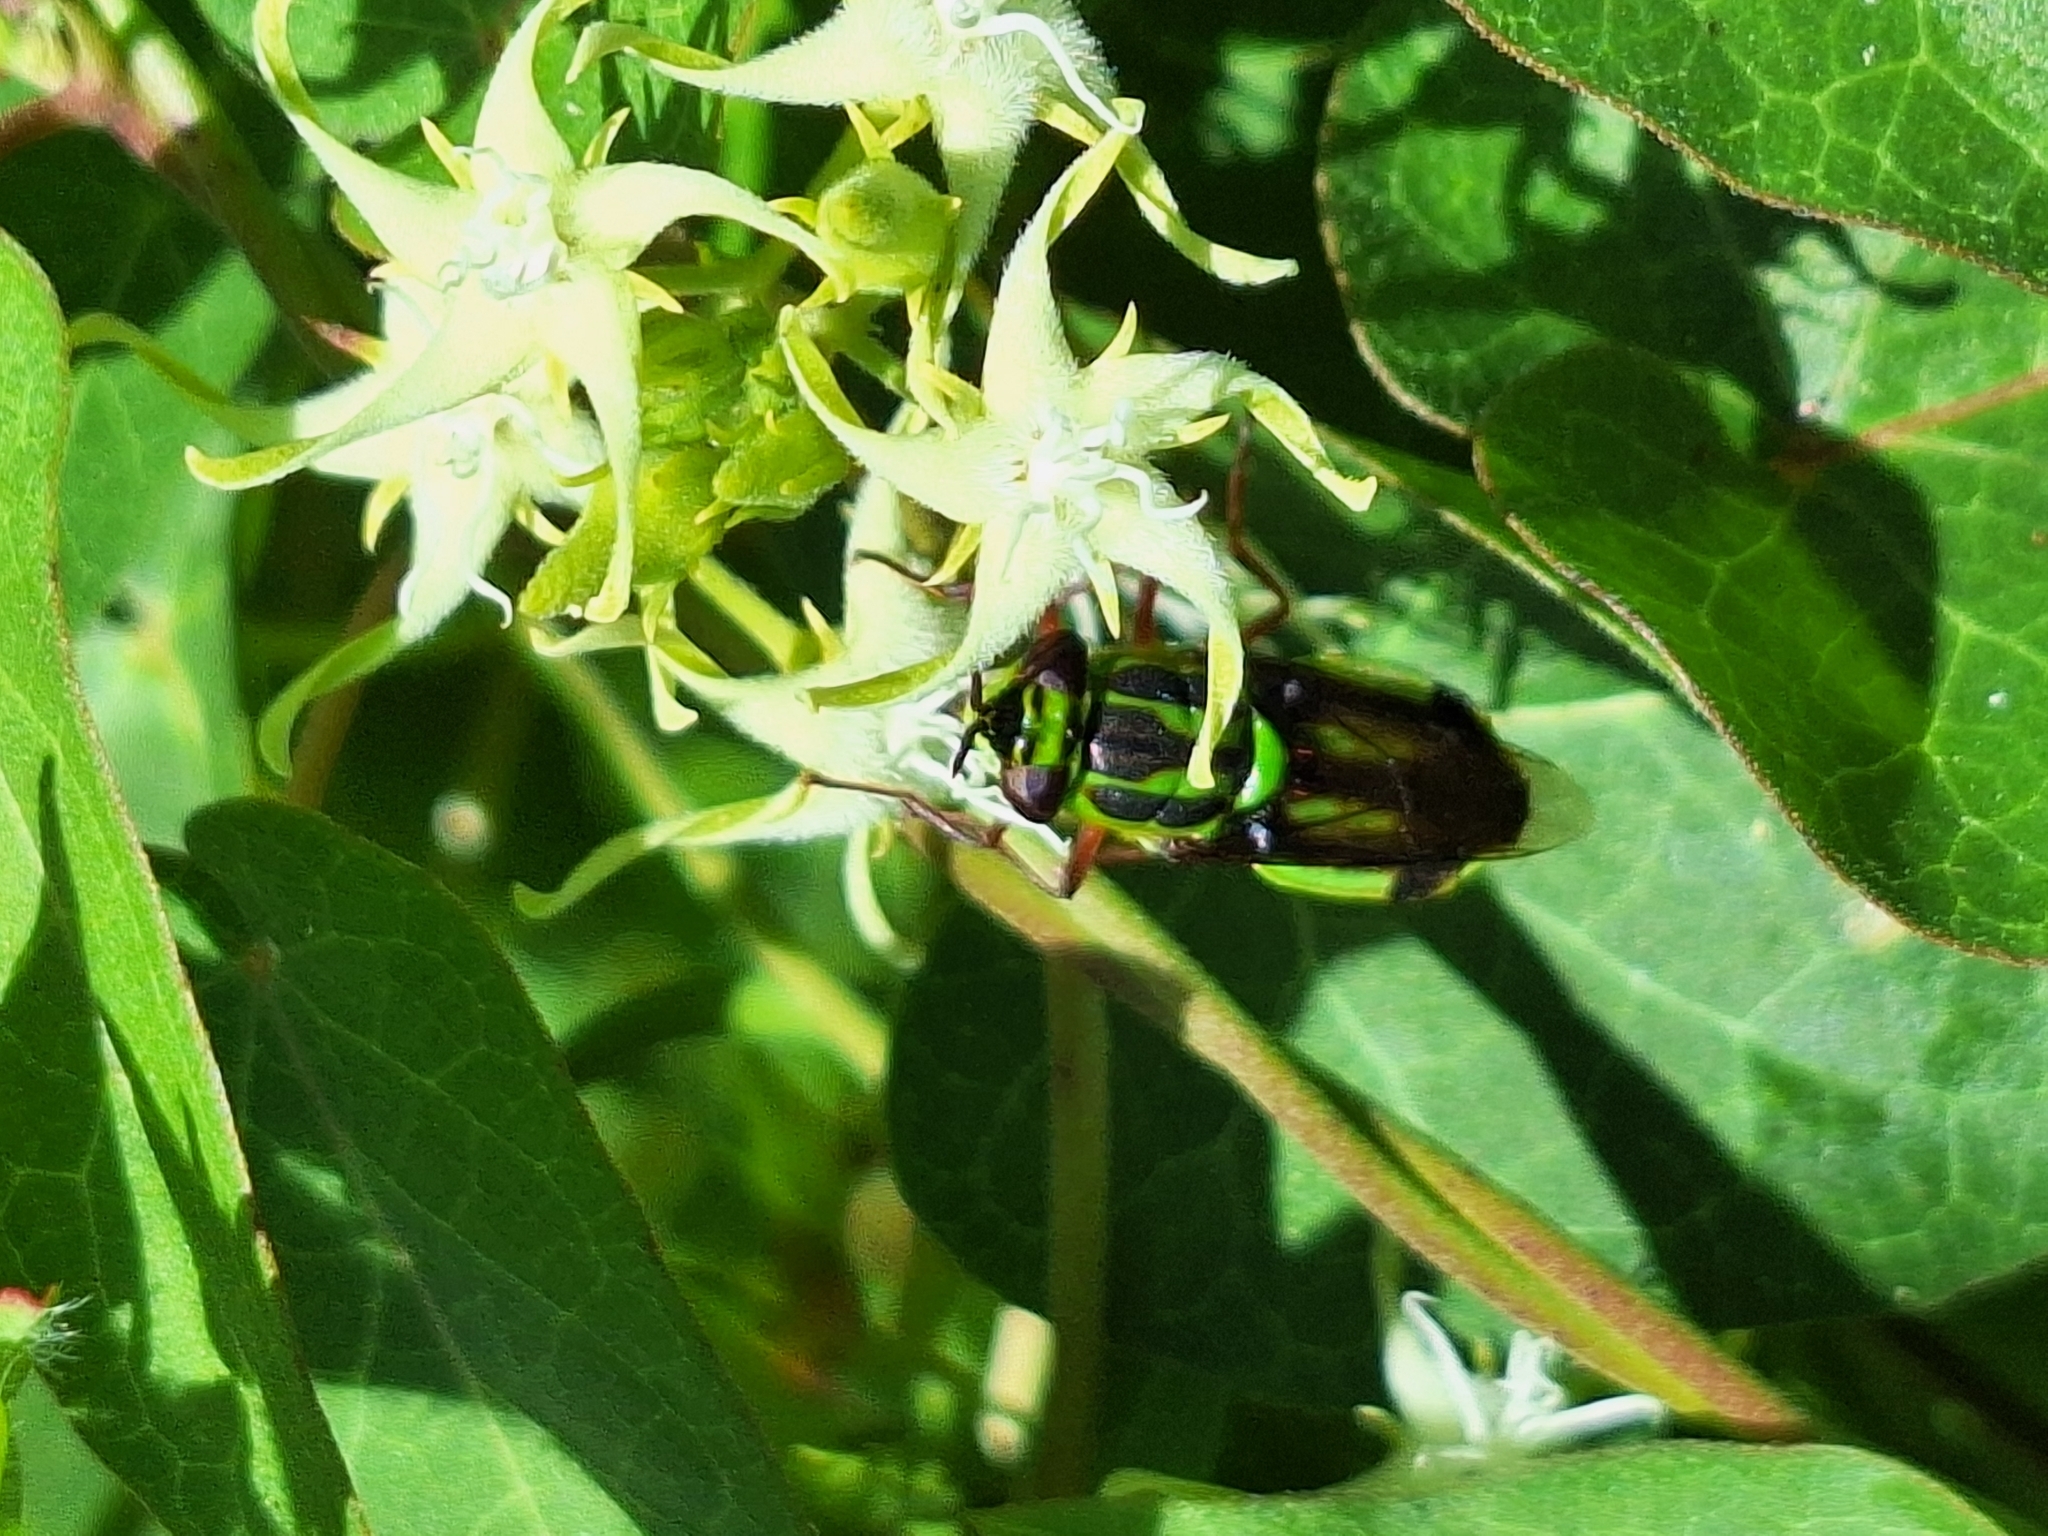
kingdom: Animalia
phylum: Arthropoda
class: Insecta
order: Diptera
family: Stratiomyidae
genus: Hedriodiscus
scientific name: Hedriodiscus pulcher
